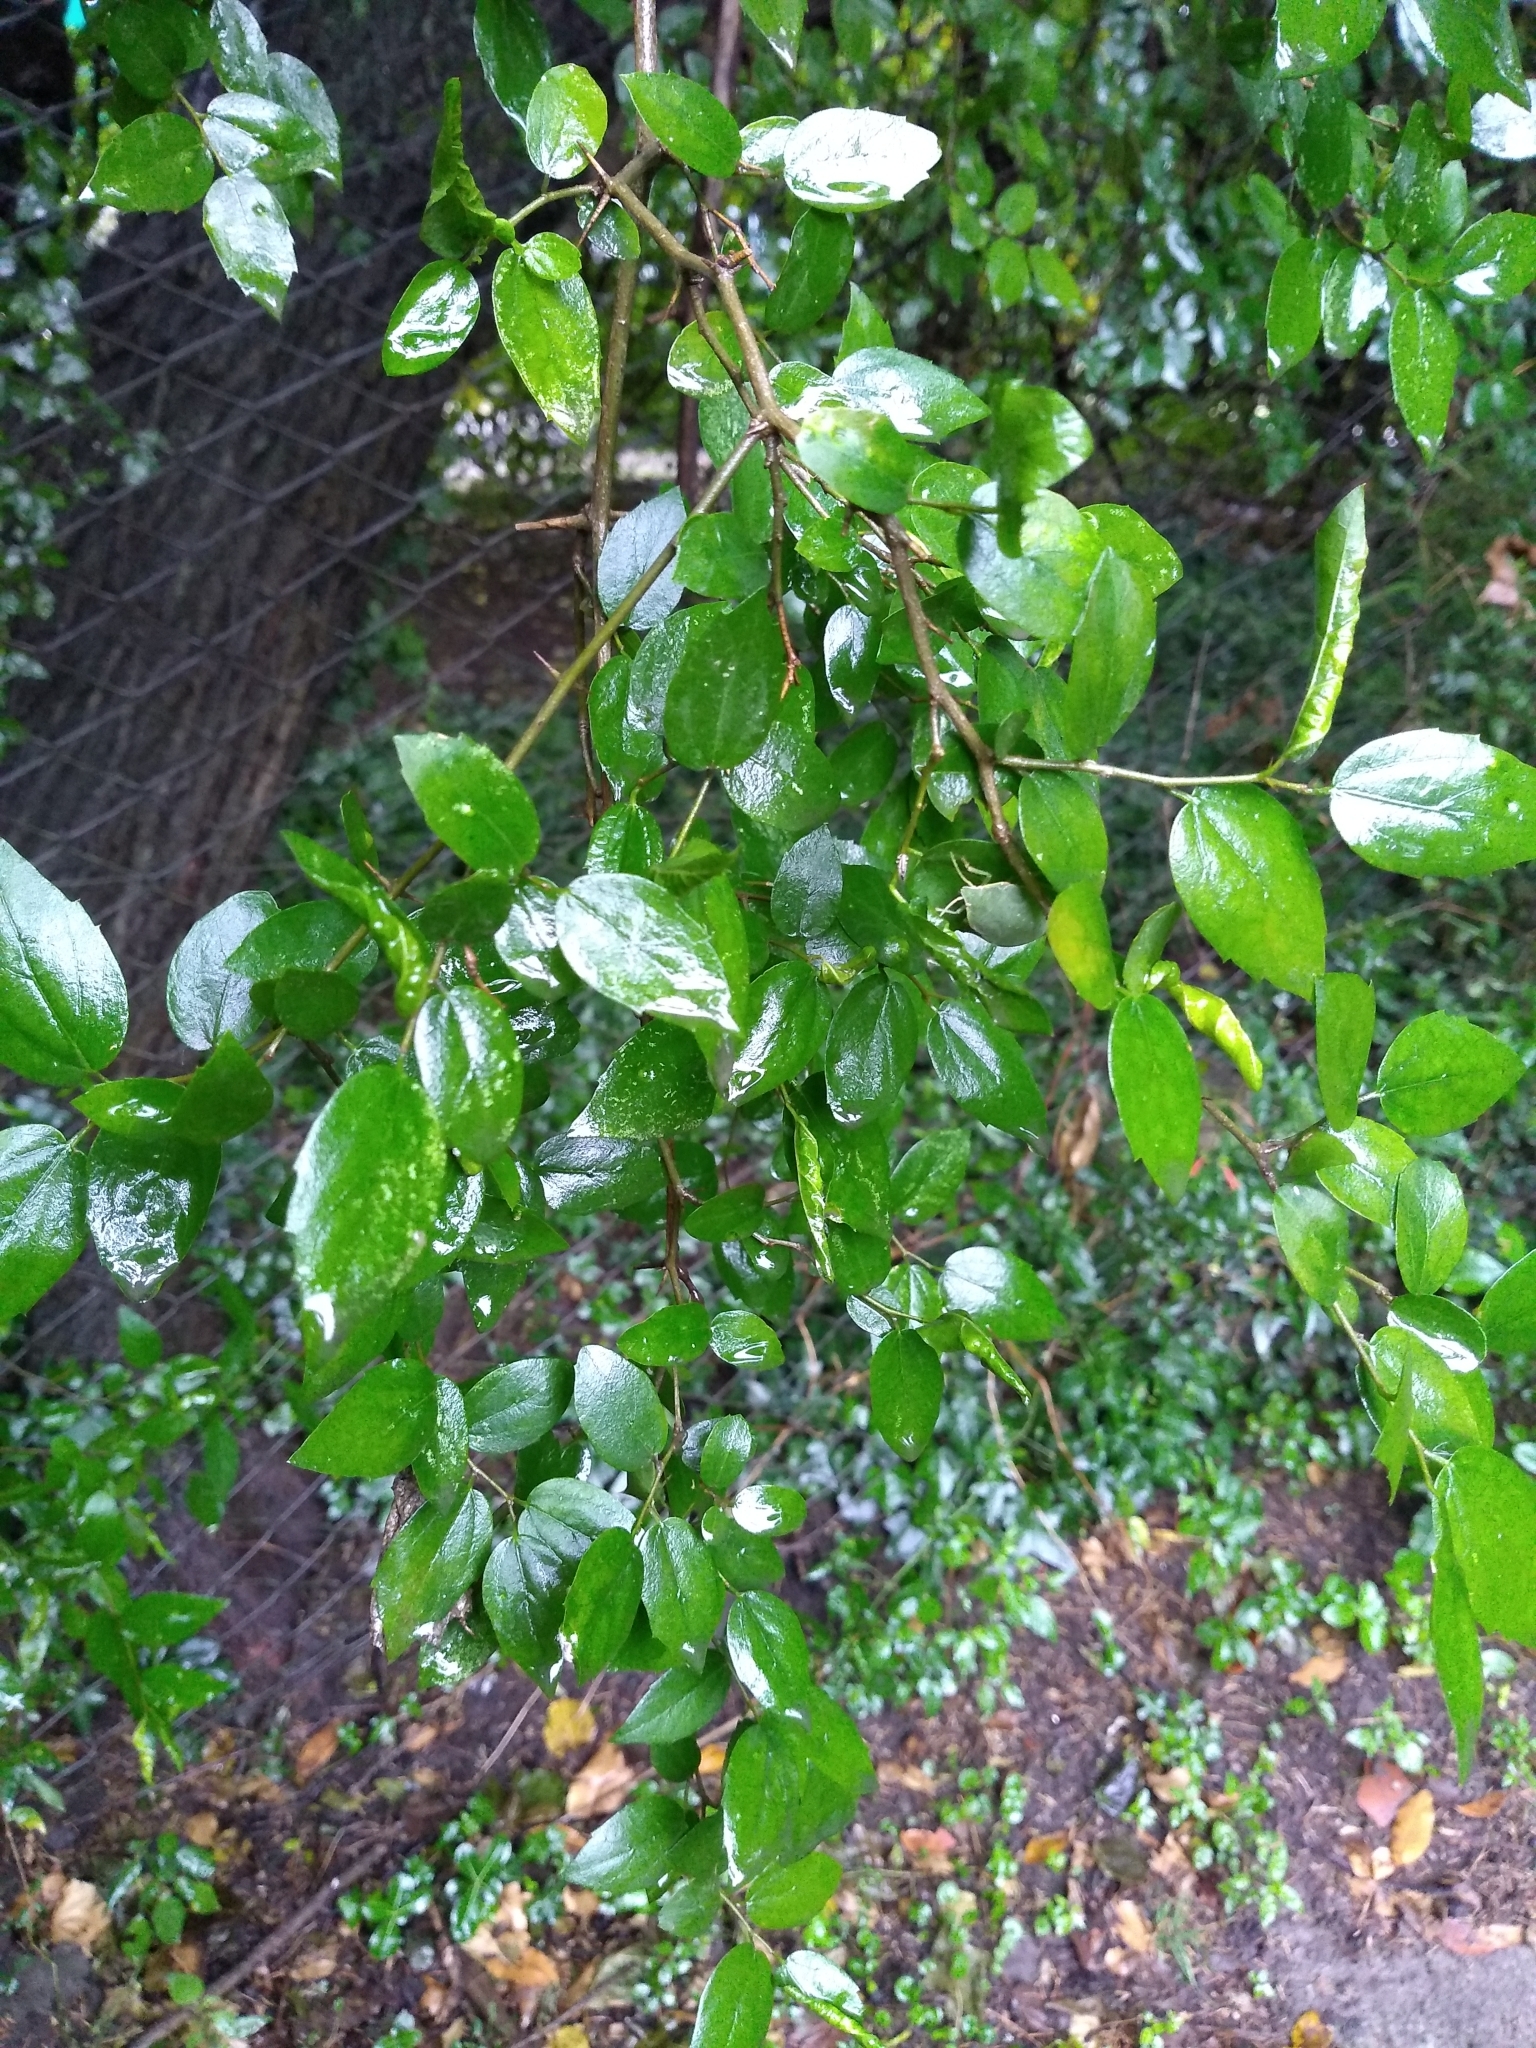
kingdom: Plantae
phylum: Tracheophyta
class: Magnoliopsida
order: Rosales
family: Cannabaceae
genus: Celtis
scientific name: Celtis tala
